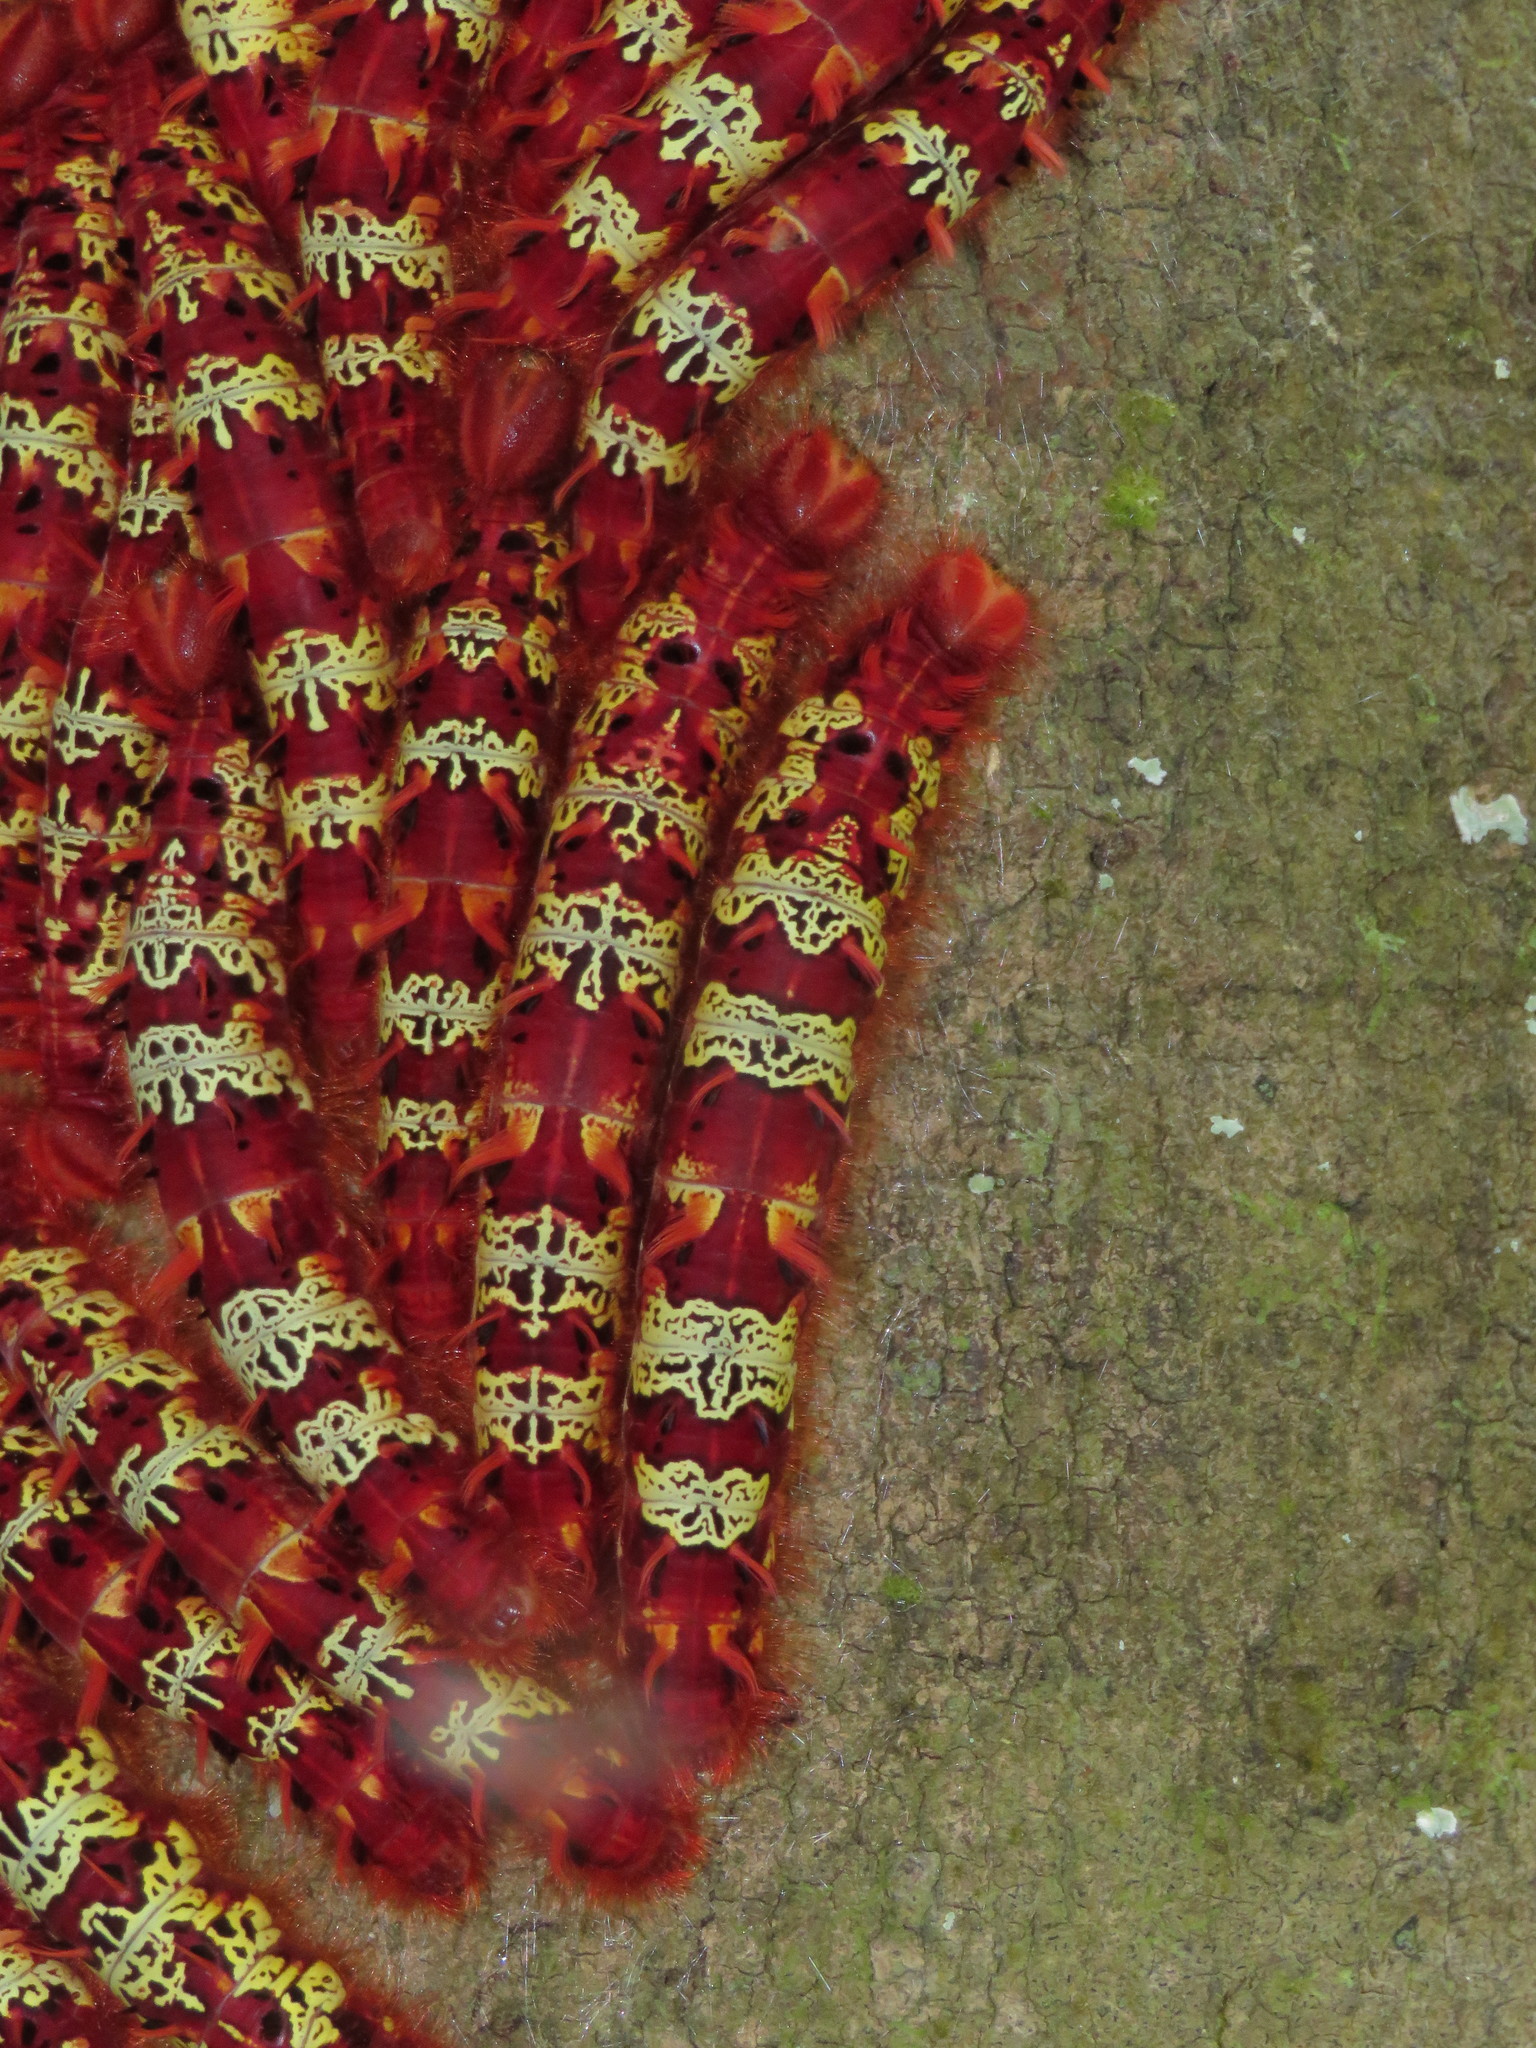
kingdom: Animalia
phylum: Arthropoda
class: Insecta
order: Lepidoptera
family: Nymphalidae
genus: Morpho
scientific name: Morpho telemachus
